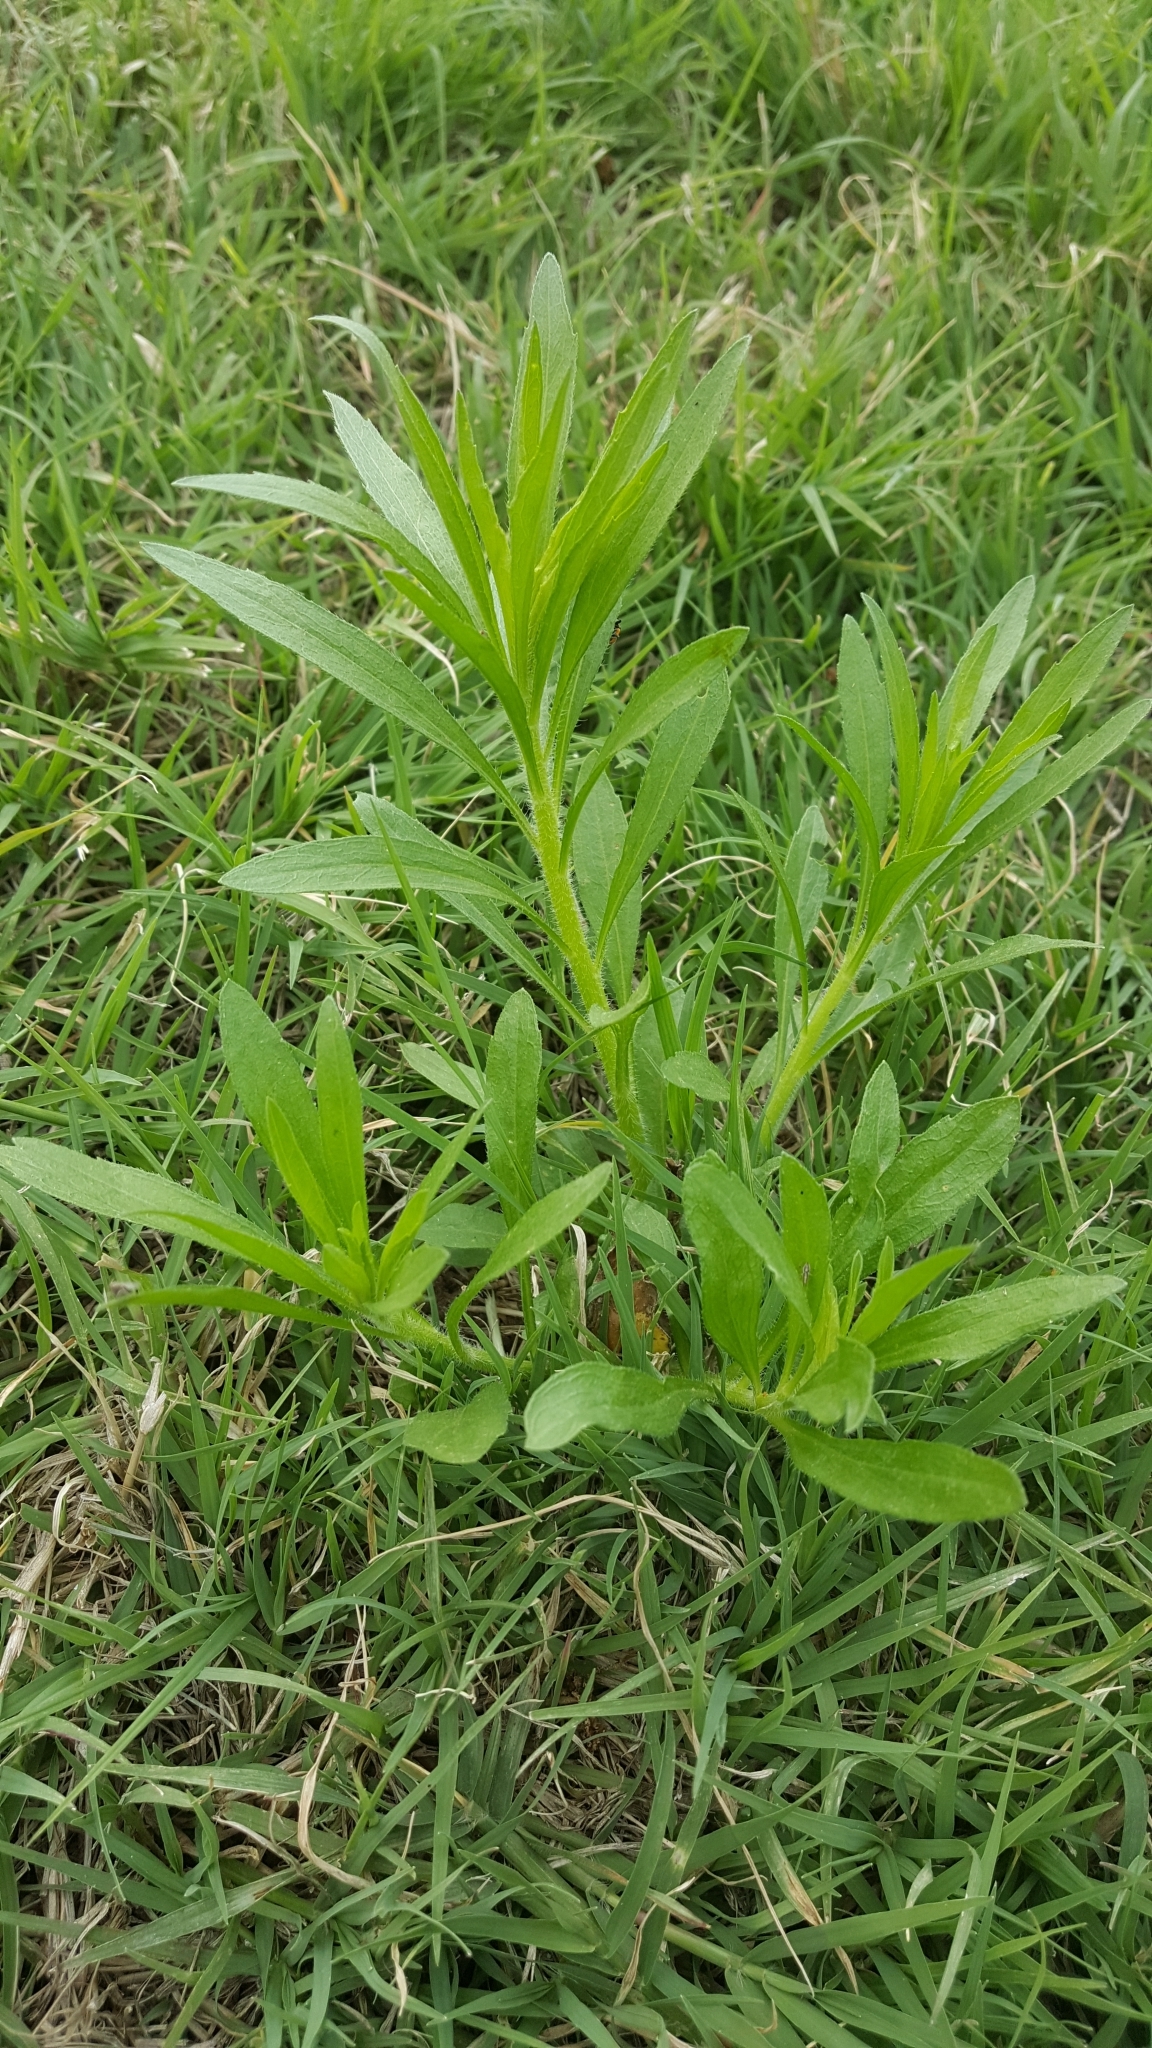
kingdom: Plantae
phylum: Tracheophyta
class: Magnoliopsida
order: Asterales
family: Asteraceae
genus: Erigeron
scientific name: Erigeron canadensis
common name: Canadian fleabane
